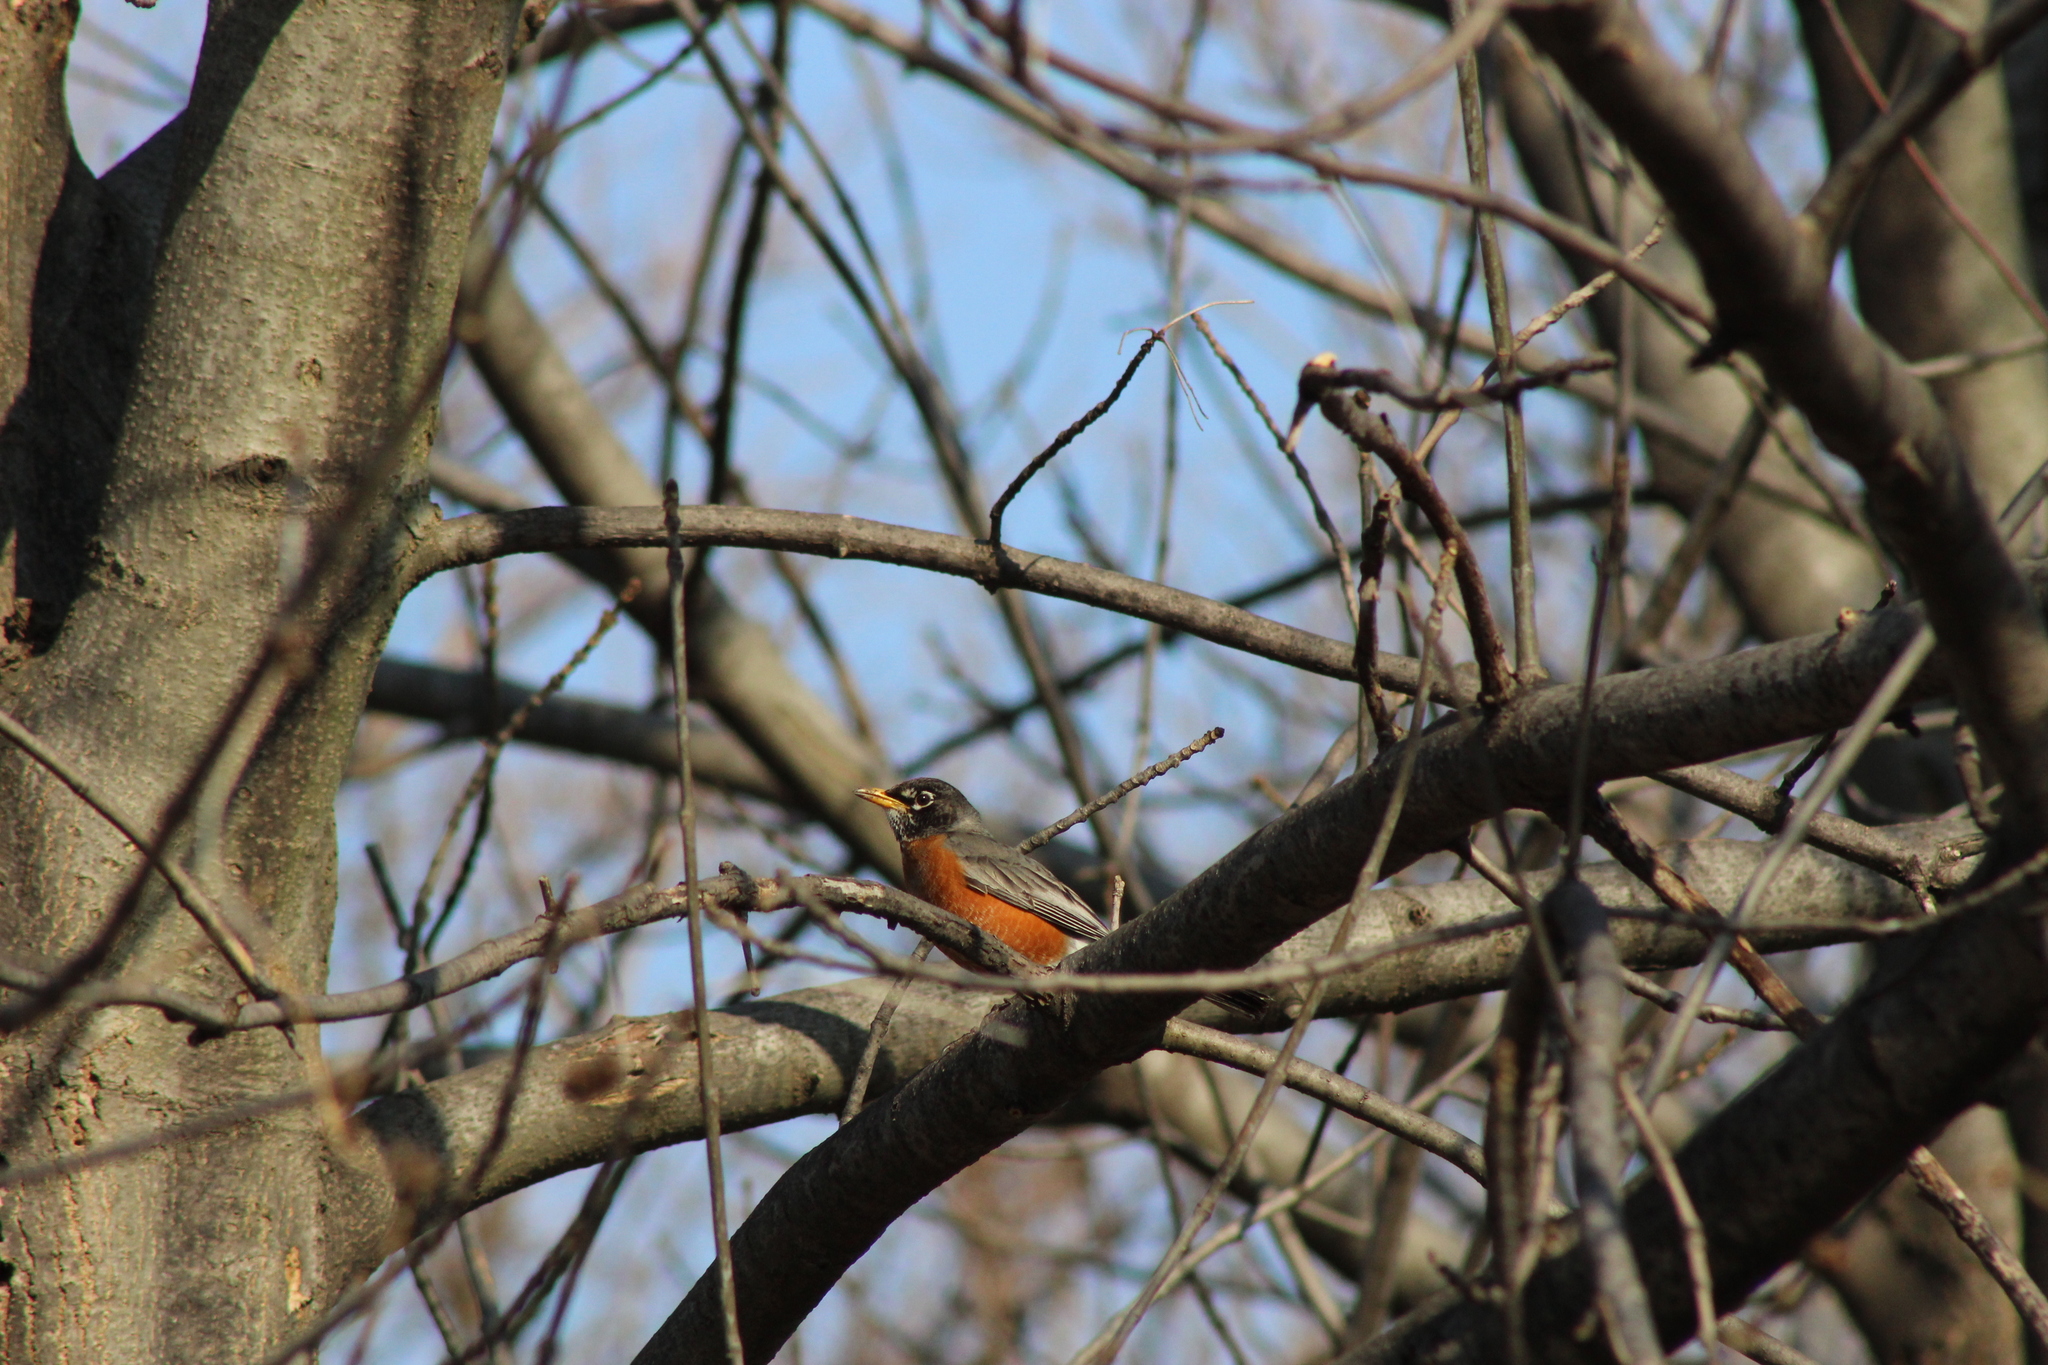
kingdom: Animalia
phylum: Chordata
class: Aves
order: Passeriformes
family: Turdidae
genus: Turdus
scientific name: Turdus migratorius
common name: American robin
